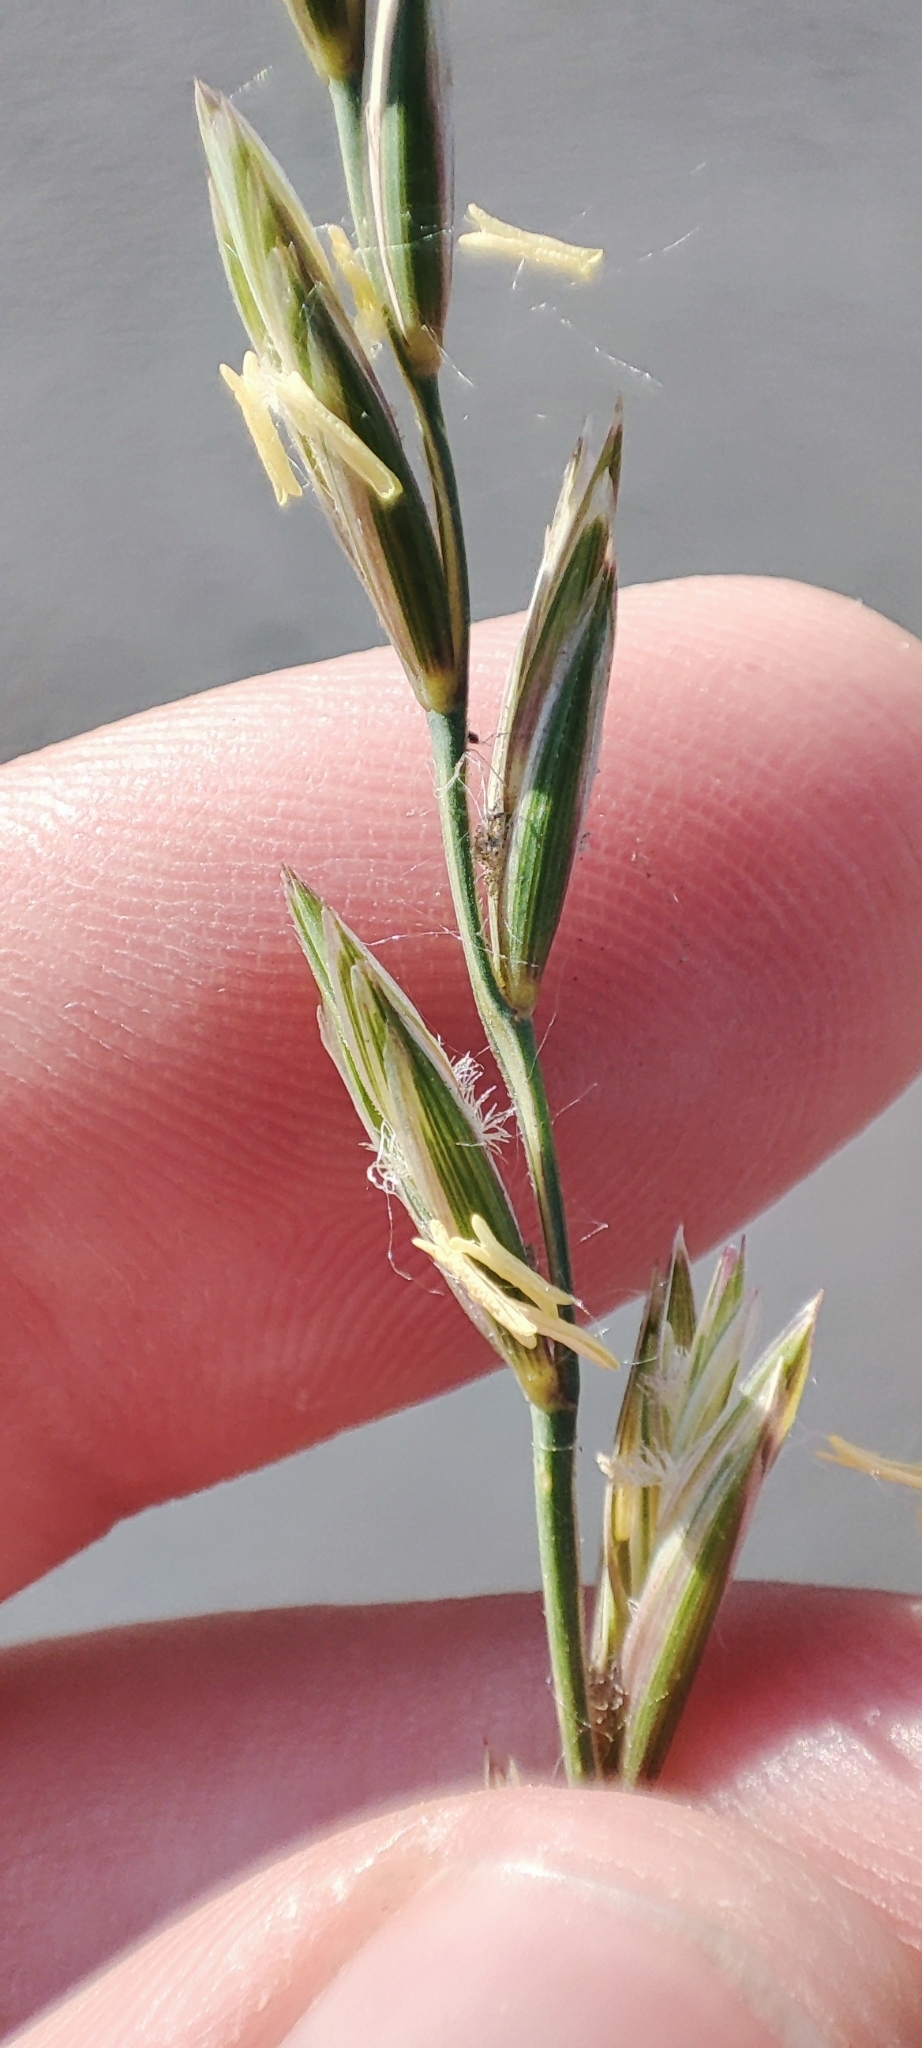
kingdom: Plantae
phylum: Tracheophyta
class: Liliopsida
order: Poales
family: Poaceae
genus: Elymus
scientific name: Elymus repens
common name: Quackgrass
